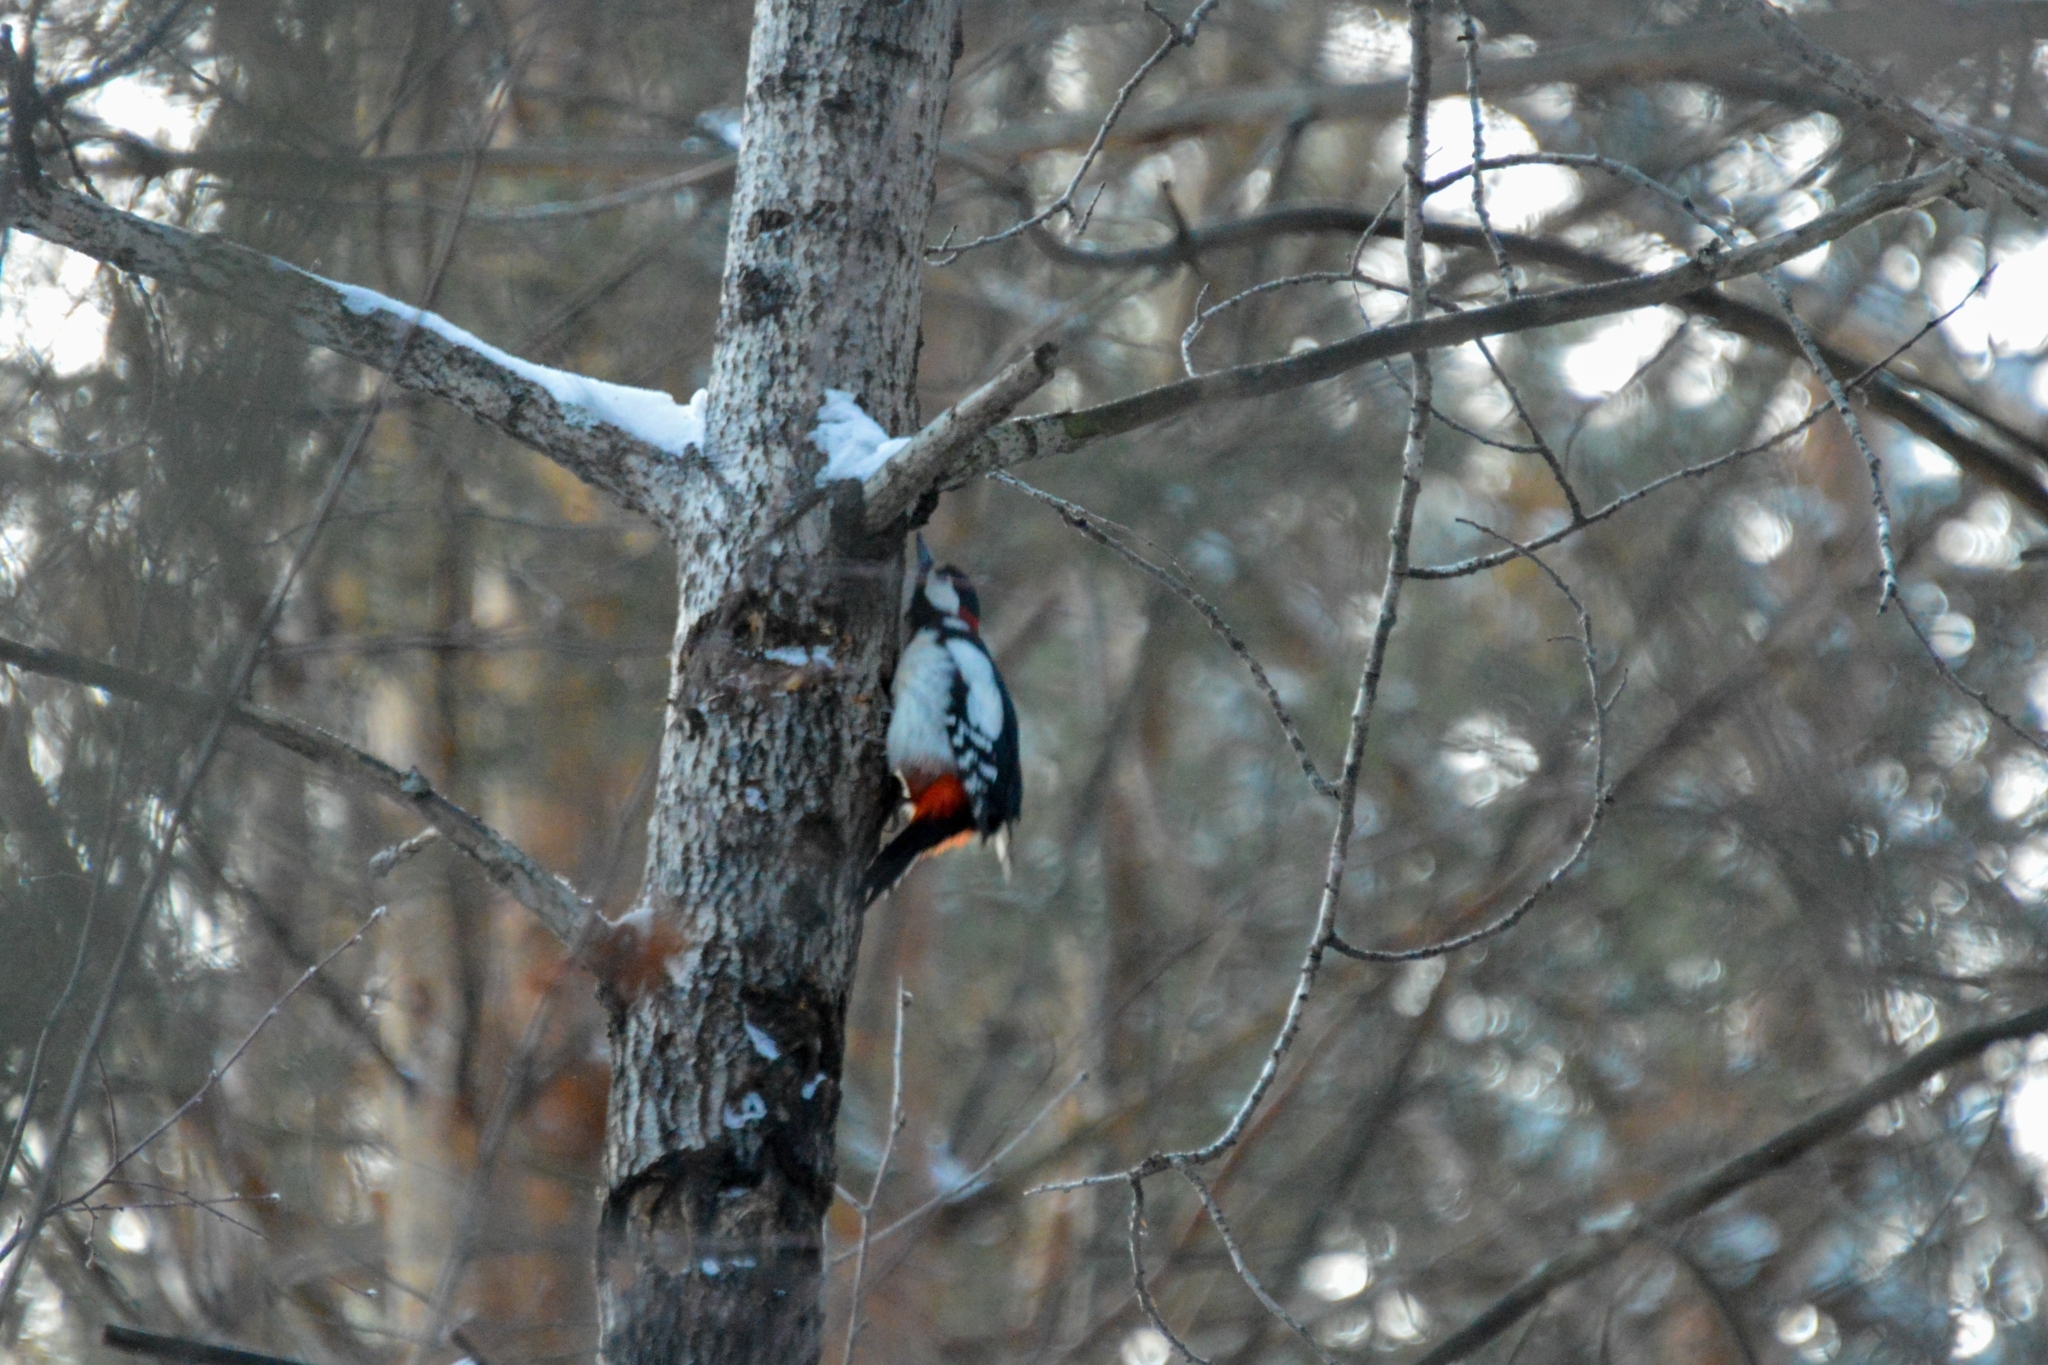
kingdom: Animalia
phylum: Chordata
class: Aves
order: Piciformes
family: Picidae
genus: Dendrocopos
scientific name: Dendrocopos major
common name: Great spotted woodpecker
